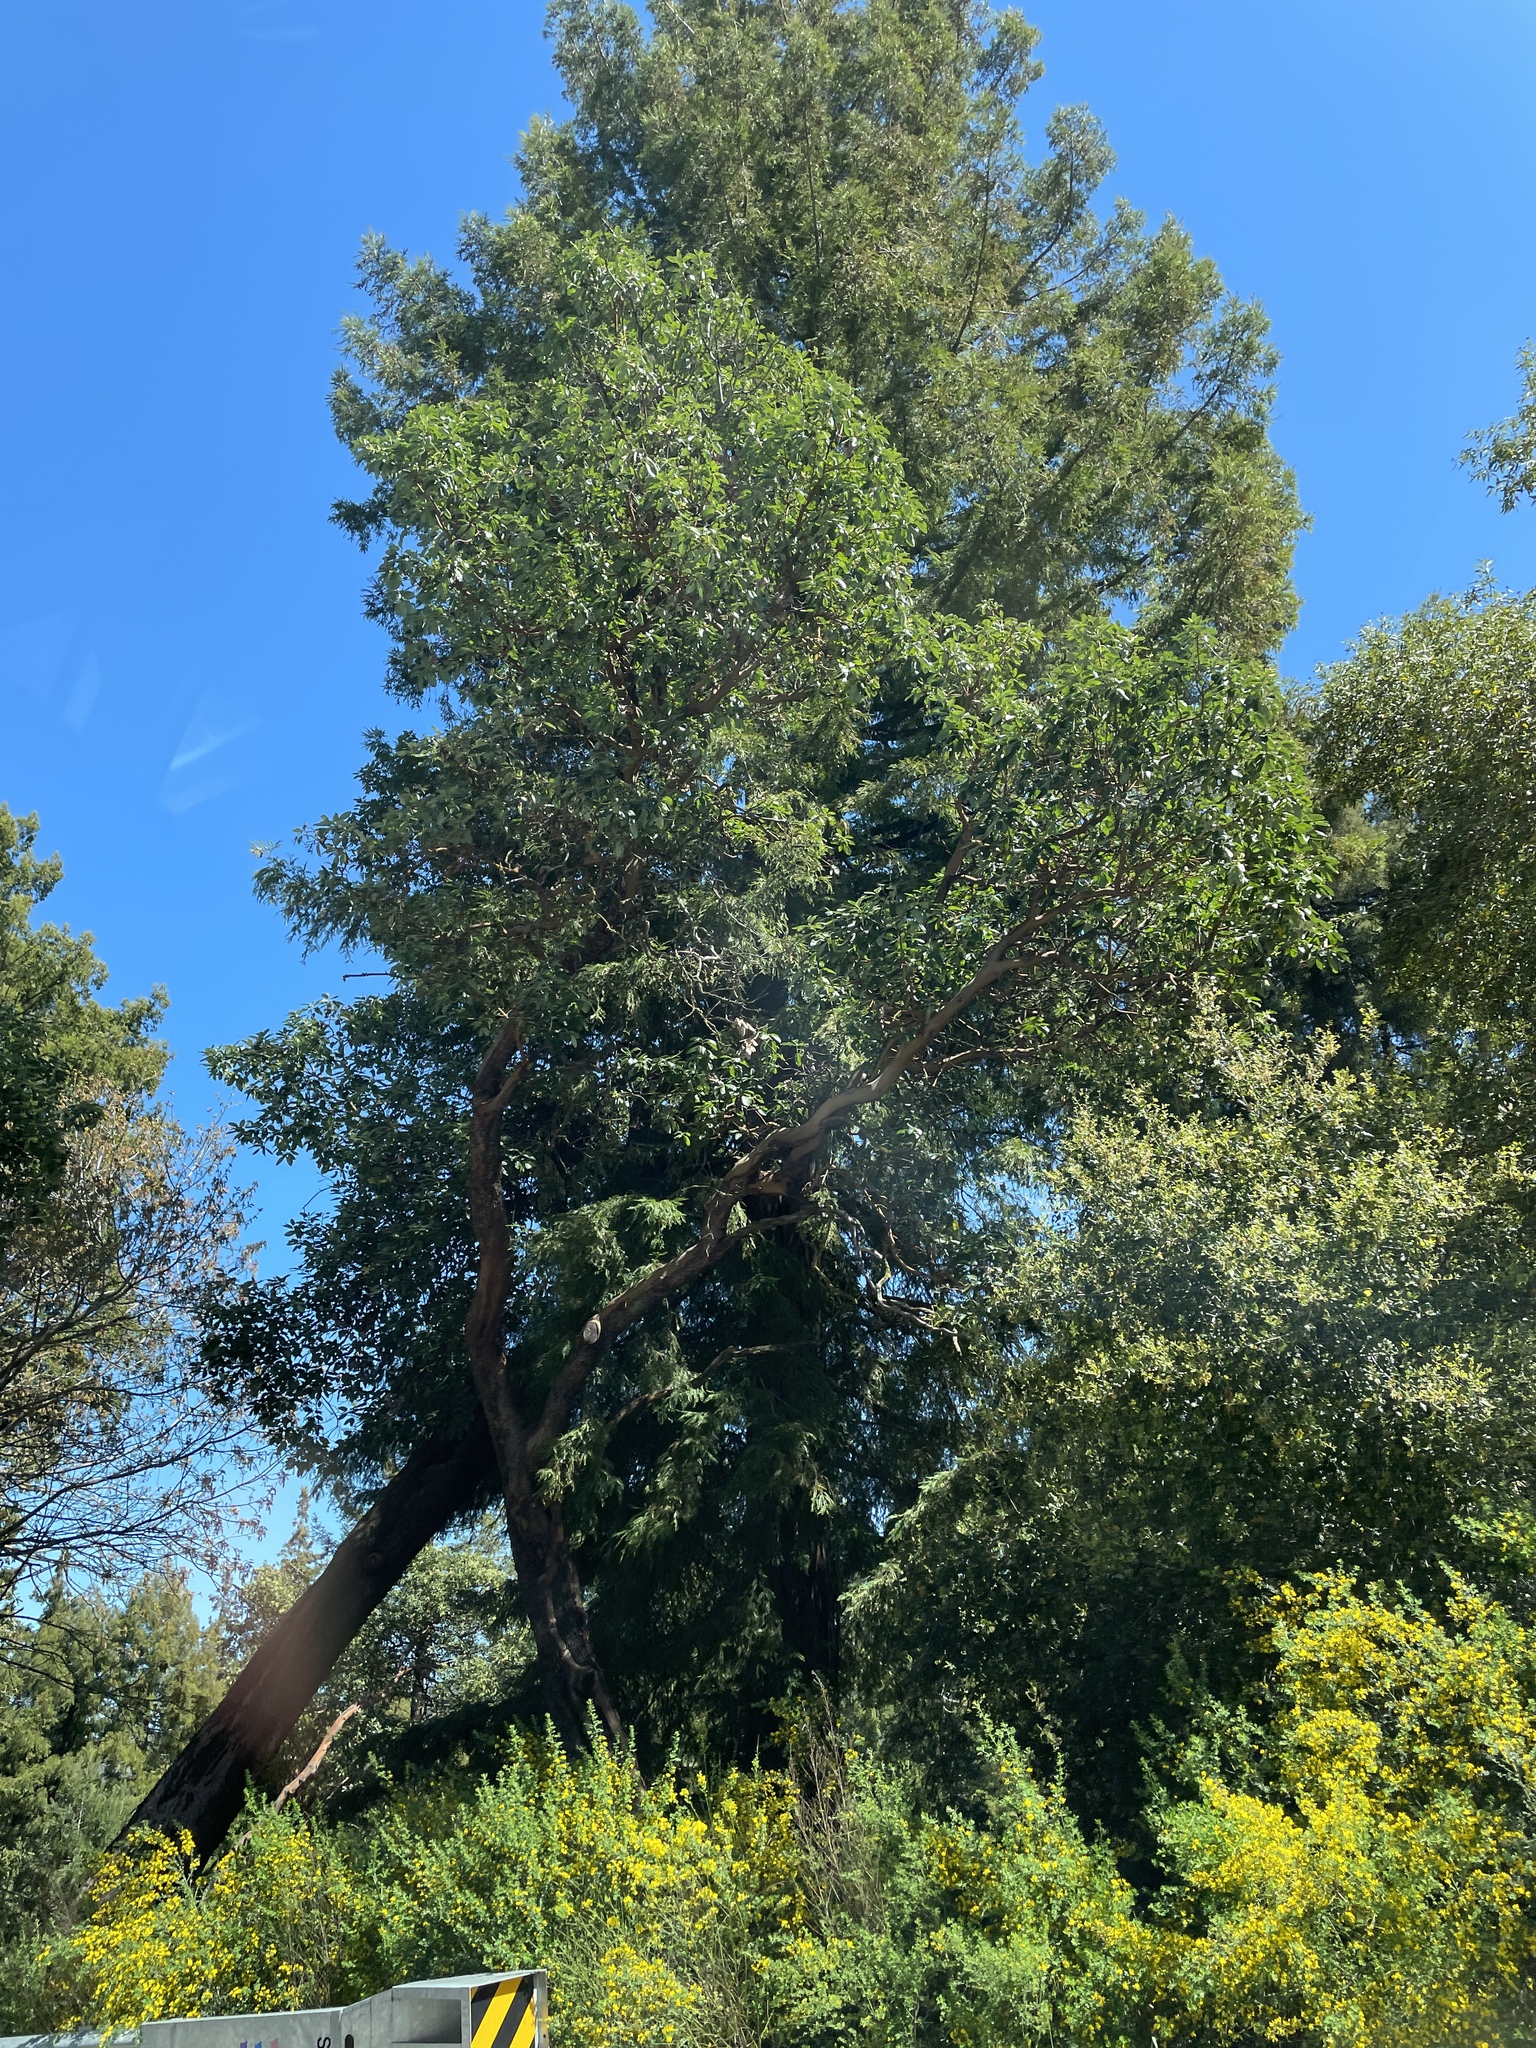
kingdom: Plantae
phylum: Tracheophyta
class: Magnoliopsida
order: Ericales
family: Ericaceae
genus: Arbutus
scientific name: Arbutus menziesii
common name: Pacific madrone
